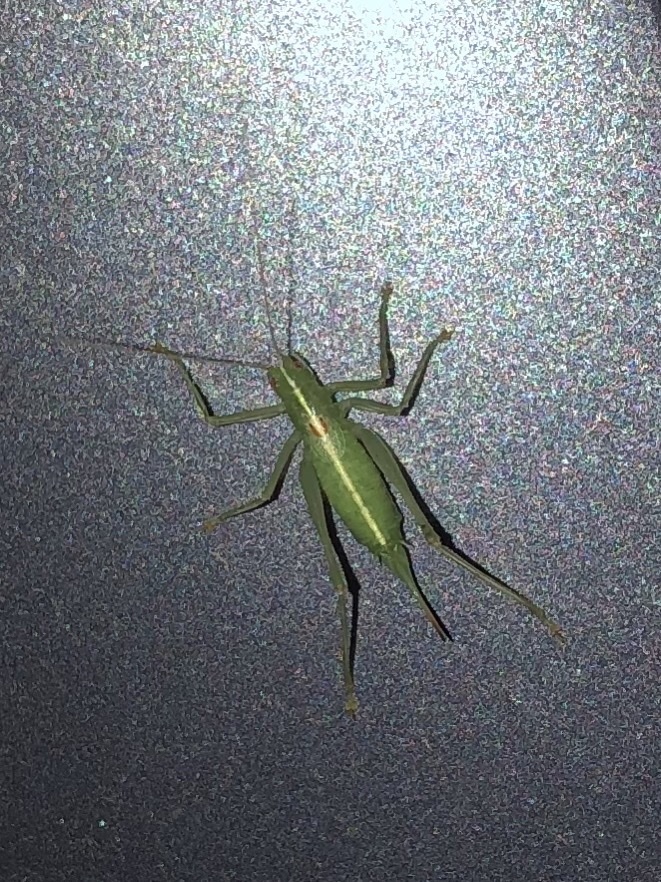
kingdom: Animalia
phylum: Arthropoda
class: Insecta
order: Orthoptera
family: Tettigoniidae
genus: Meconema
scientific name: Meconema meridionale
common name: Southern oak bush-cricket
